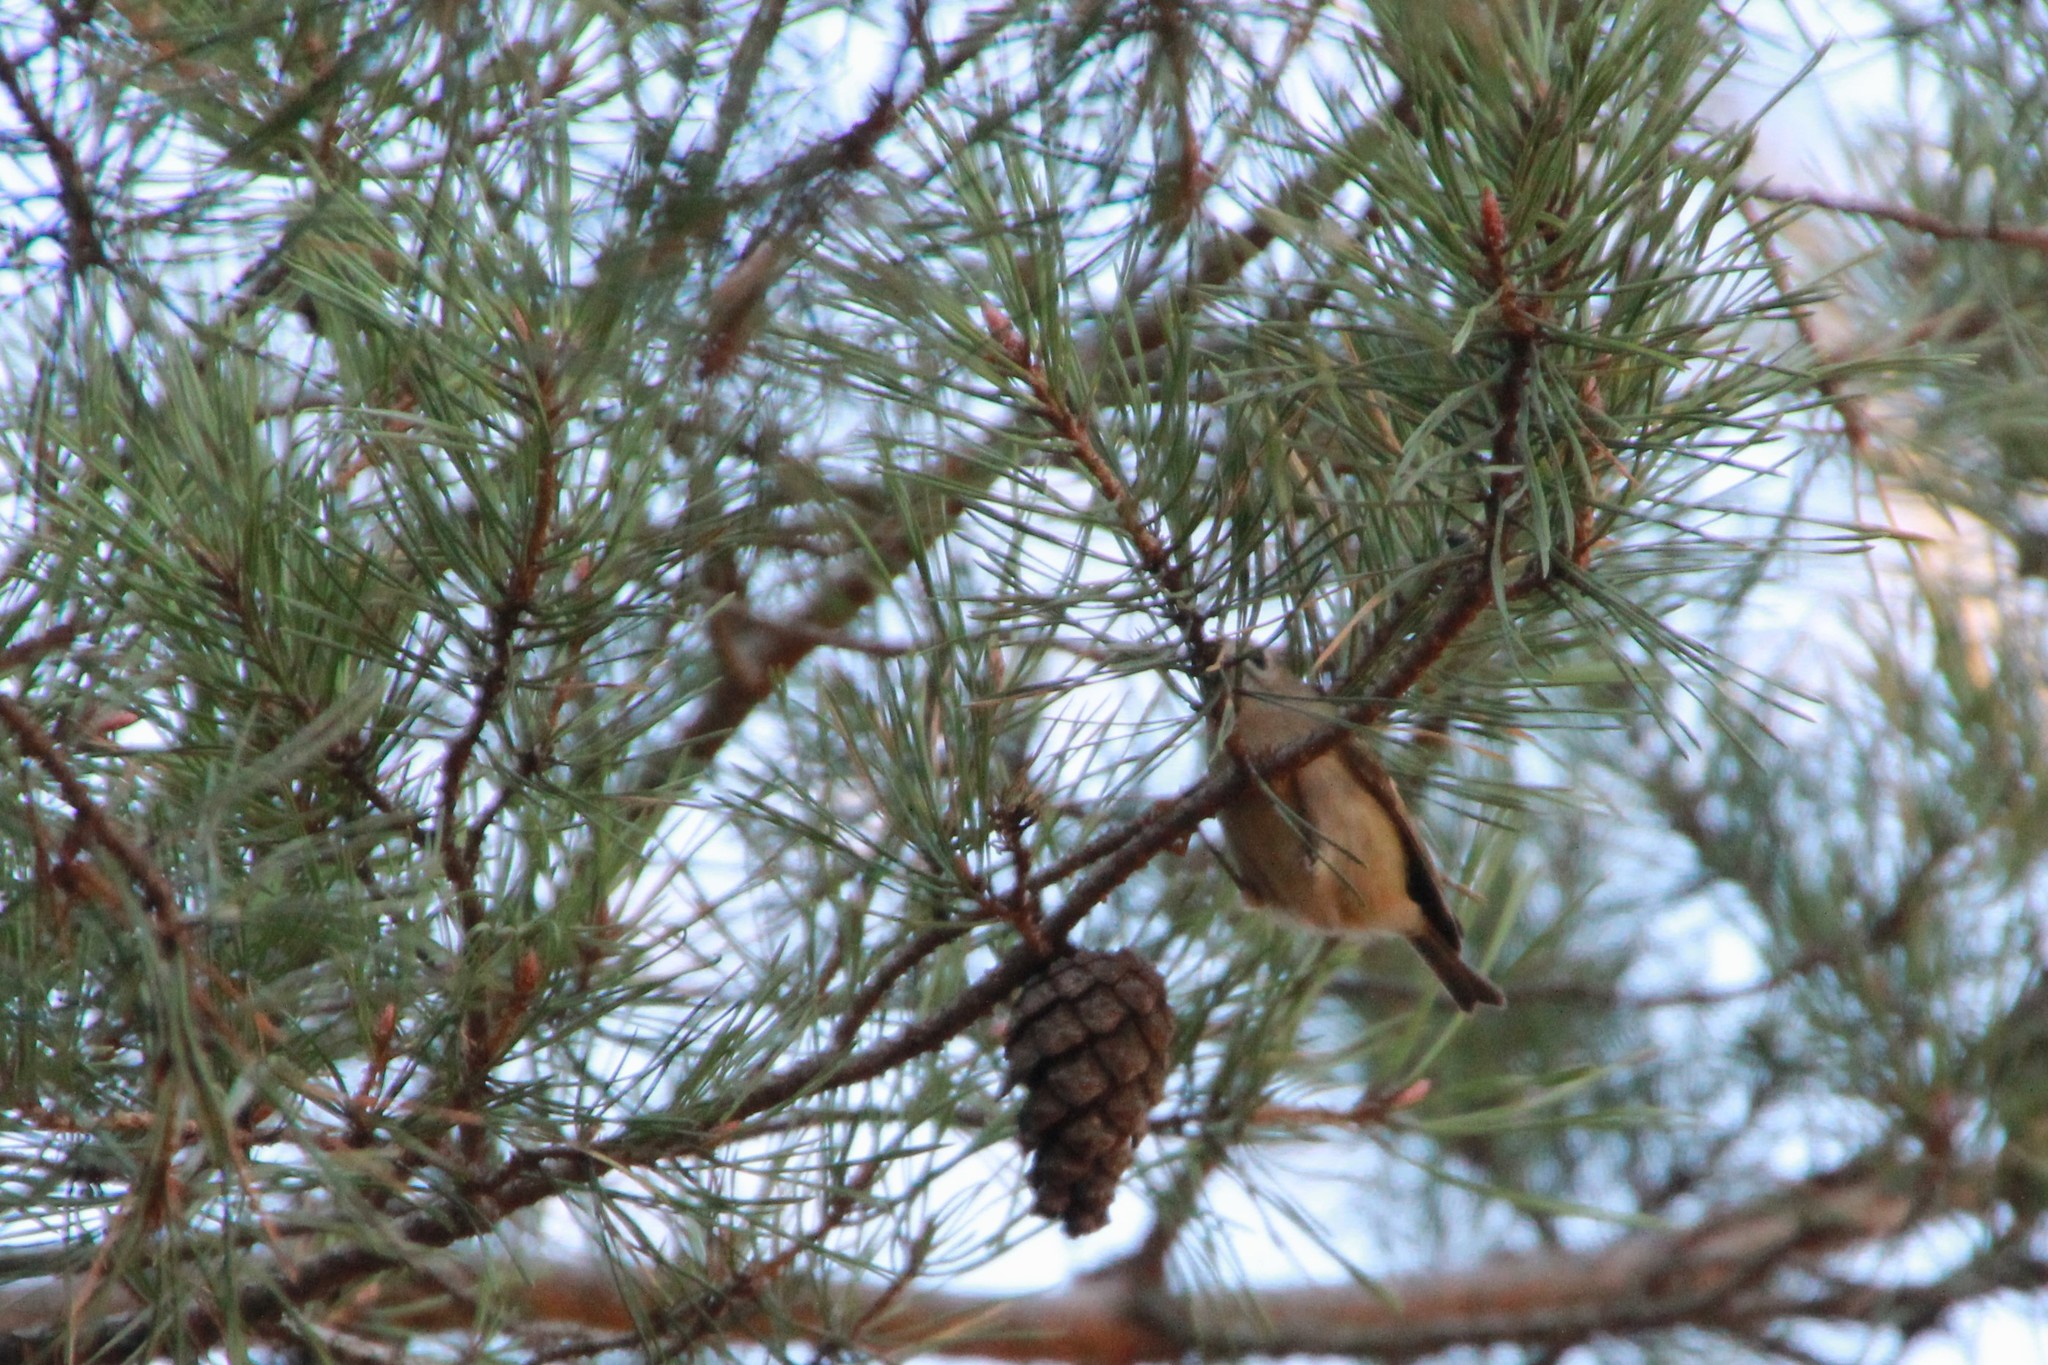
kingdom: Animalia
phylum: Chordata
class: Aves
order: Passeriformes
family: Regulidae
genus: Regulus
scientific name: Regulus regulus
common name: Goldcrest
